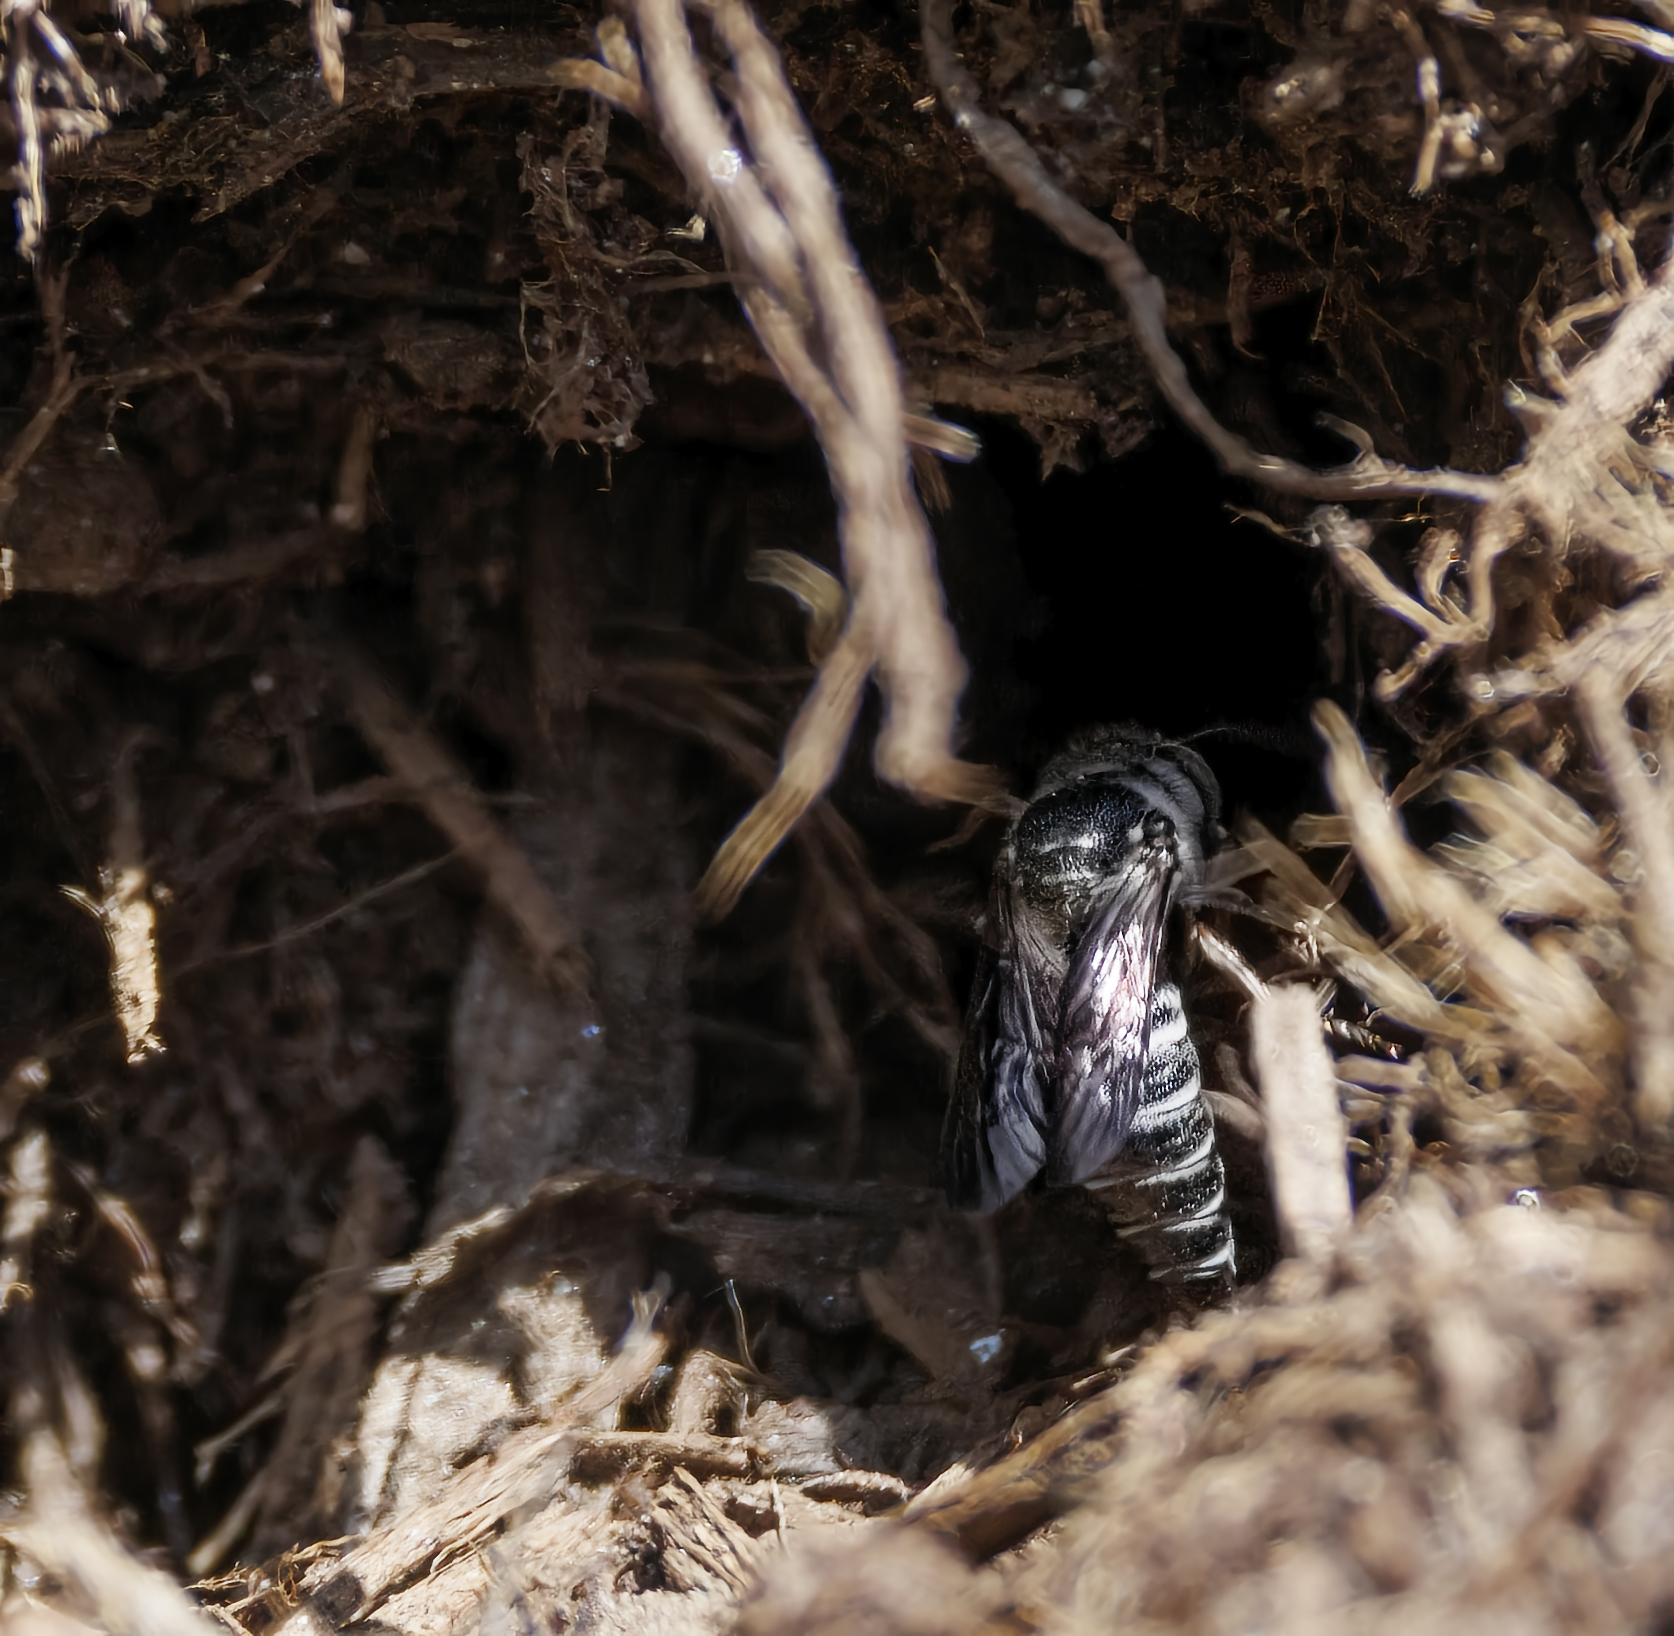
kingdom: Animalia
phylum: Arthropoda
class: Insecta
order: Hymenoptera
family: Megachilidae
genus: Coelioxys
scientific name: Coelioxys
